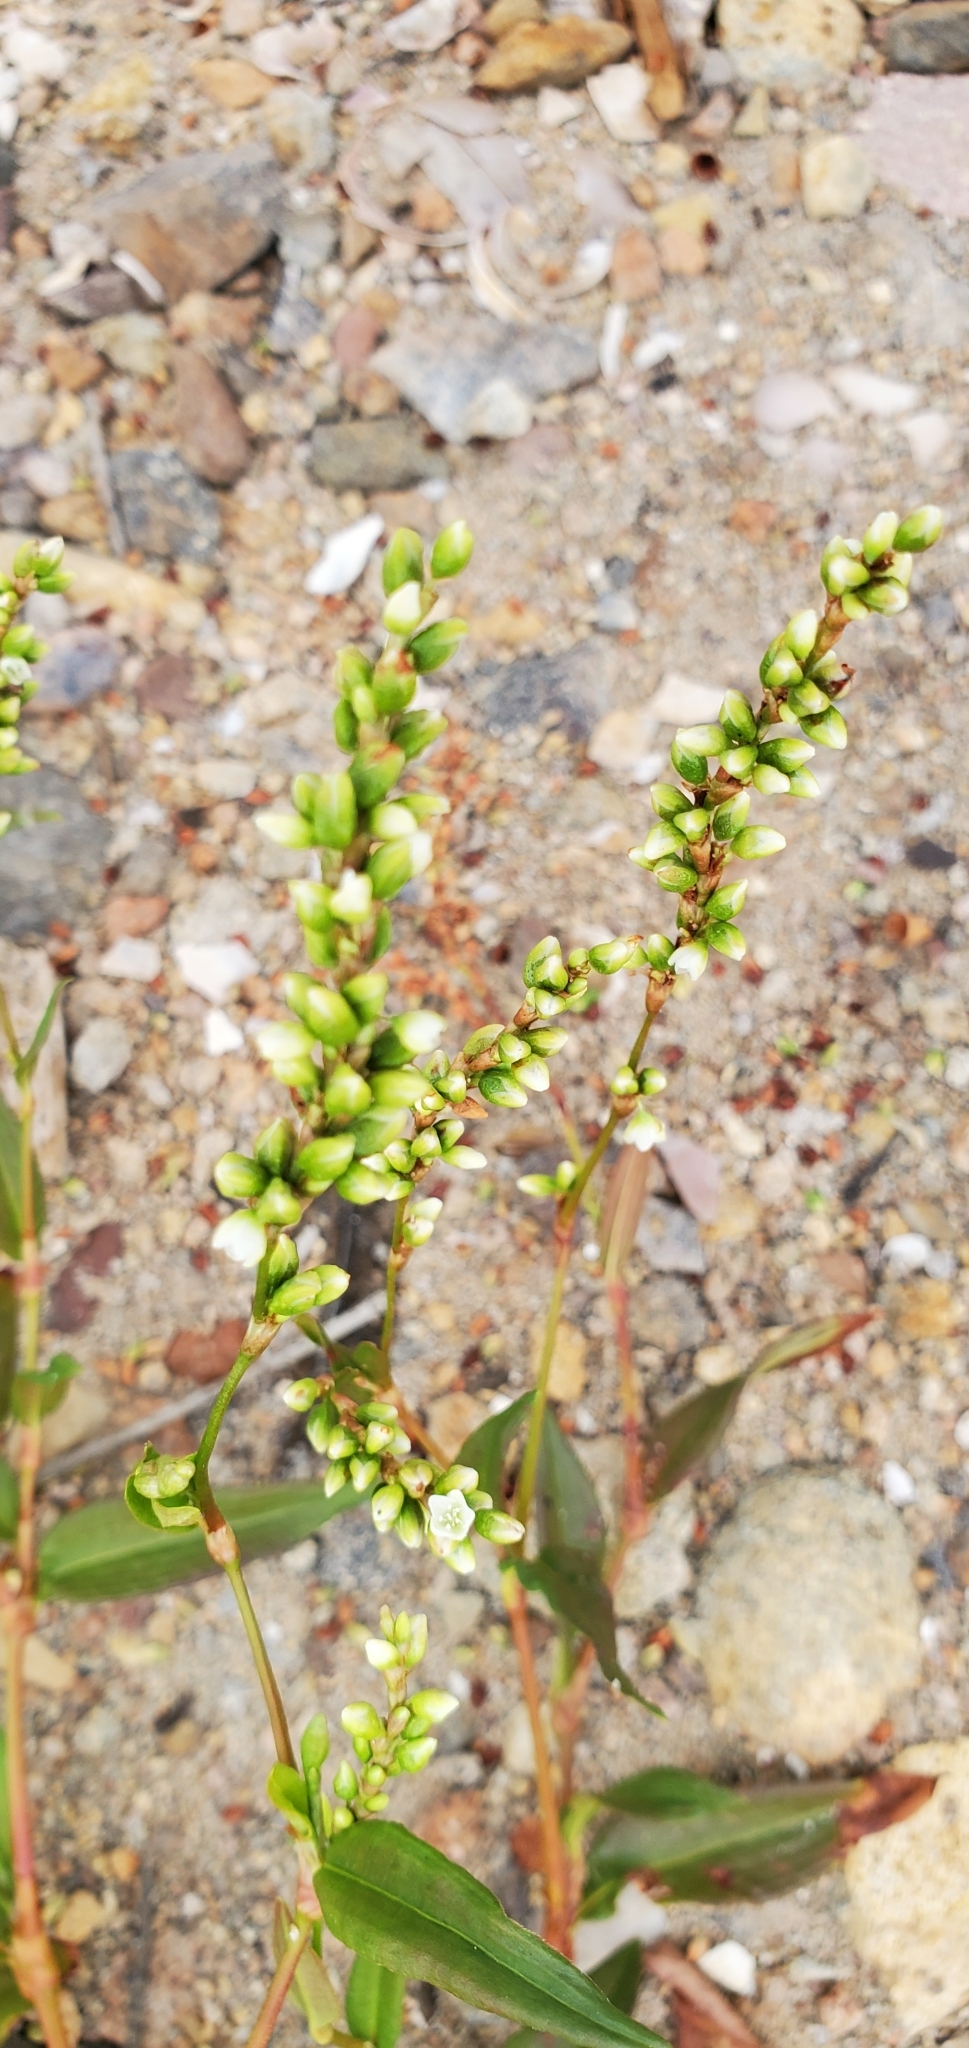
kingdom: Plantae
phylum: Tracheophyta
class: Magnoliopsida
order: Caryophyllales
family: Polygonaceae
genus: Persicaria
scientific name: Persicaria lapathifolia
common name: Curlytop knotweed
